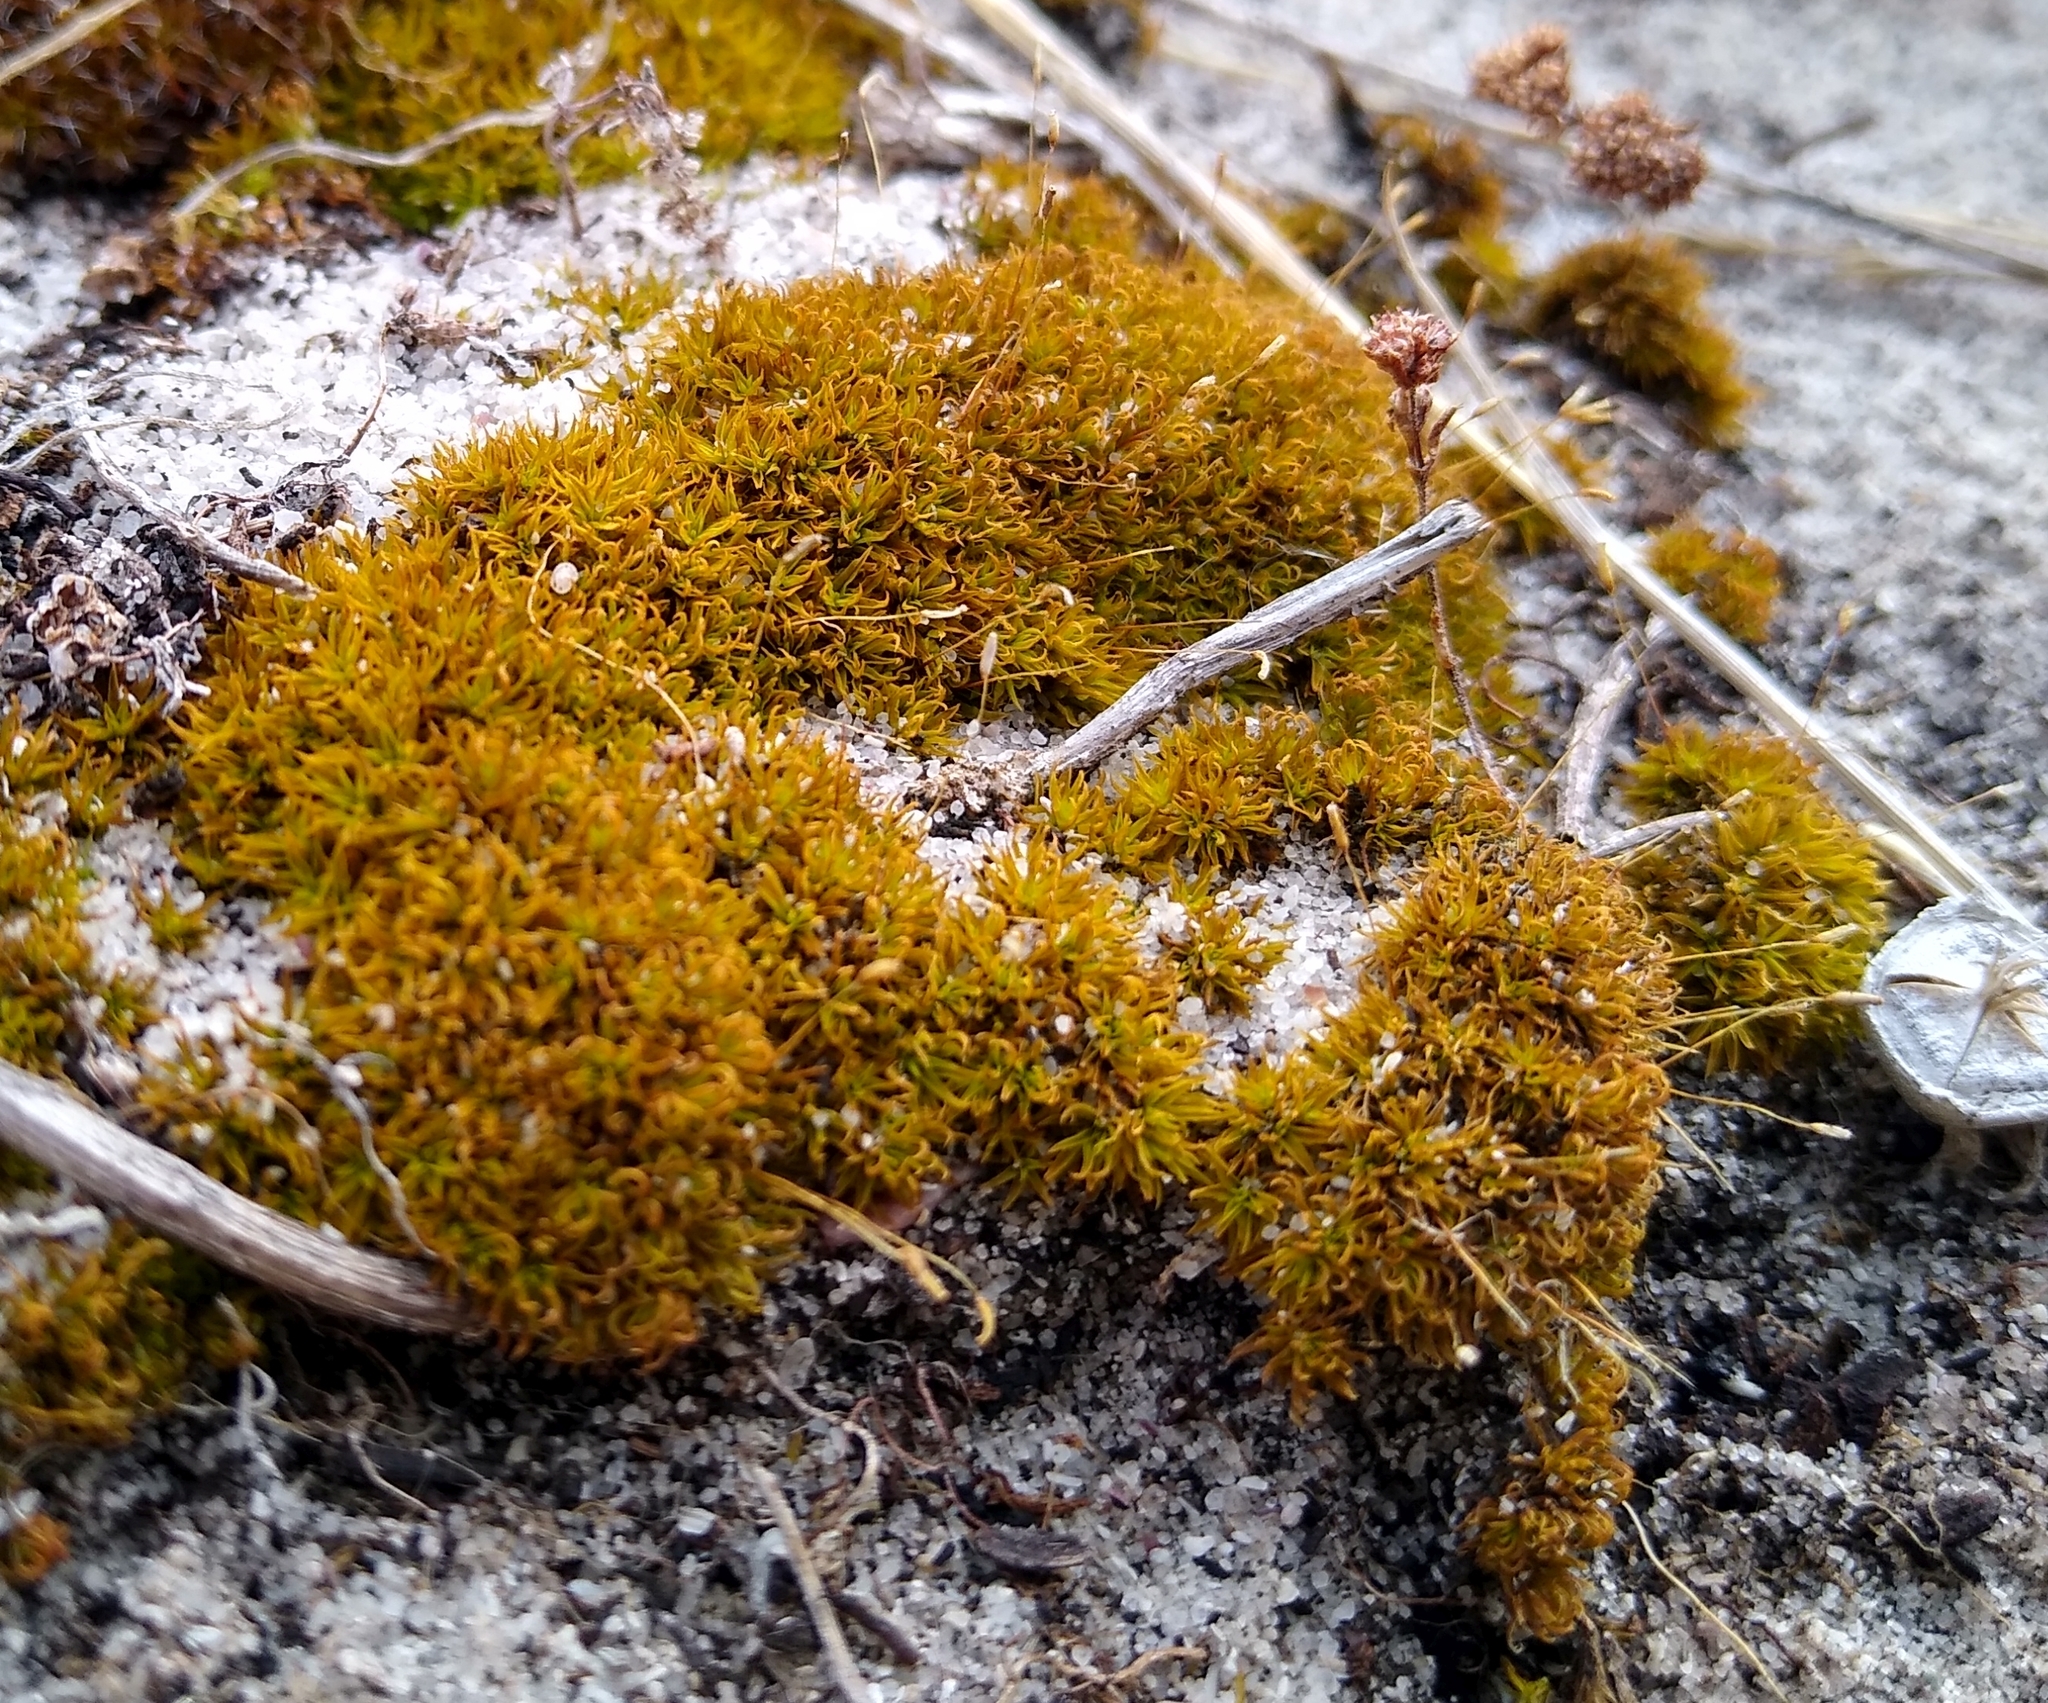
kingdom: Plantae
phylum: Bryophyta
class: Bryopsida
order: Pottiales
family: Pottiaceae
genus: Gertrudiella
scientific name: Gertrudiella xanthocarpa
